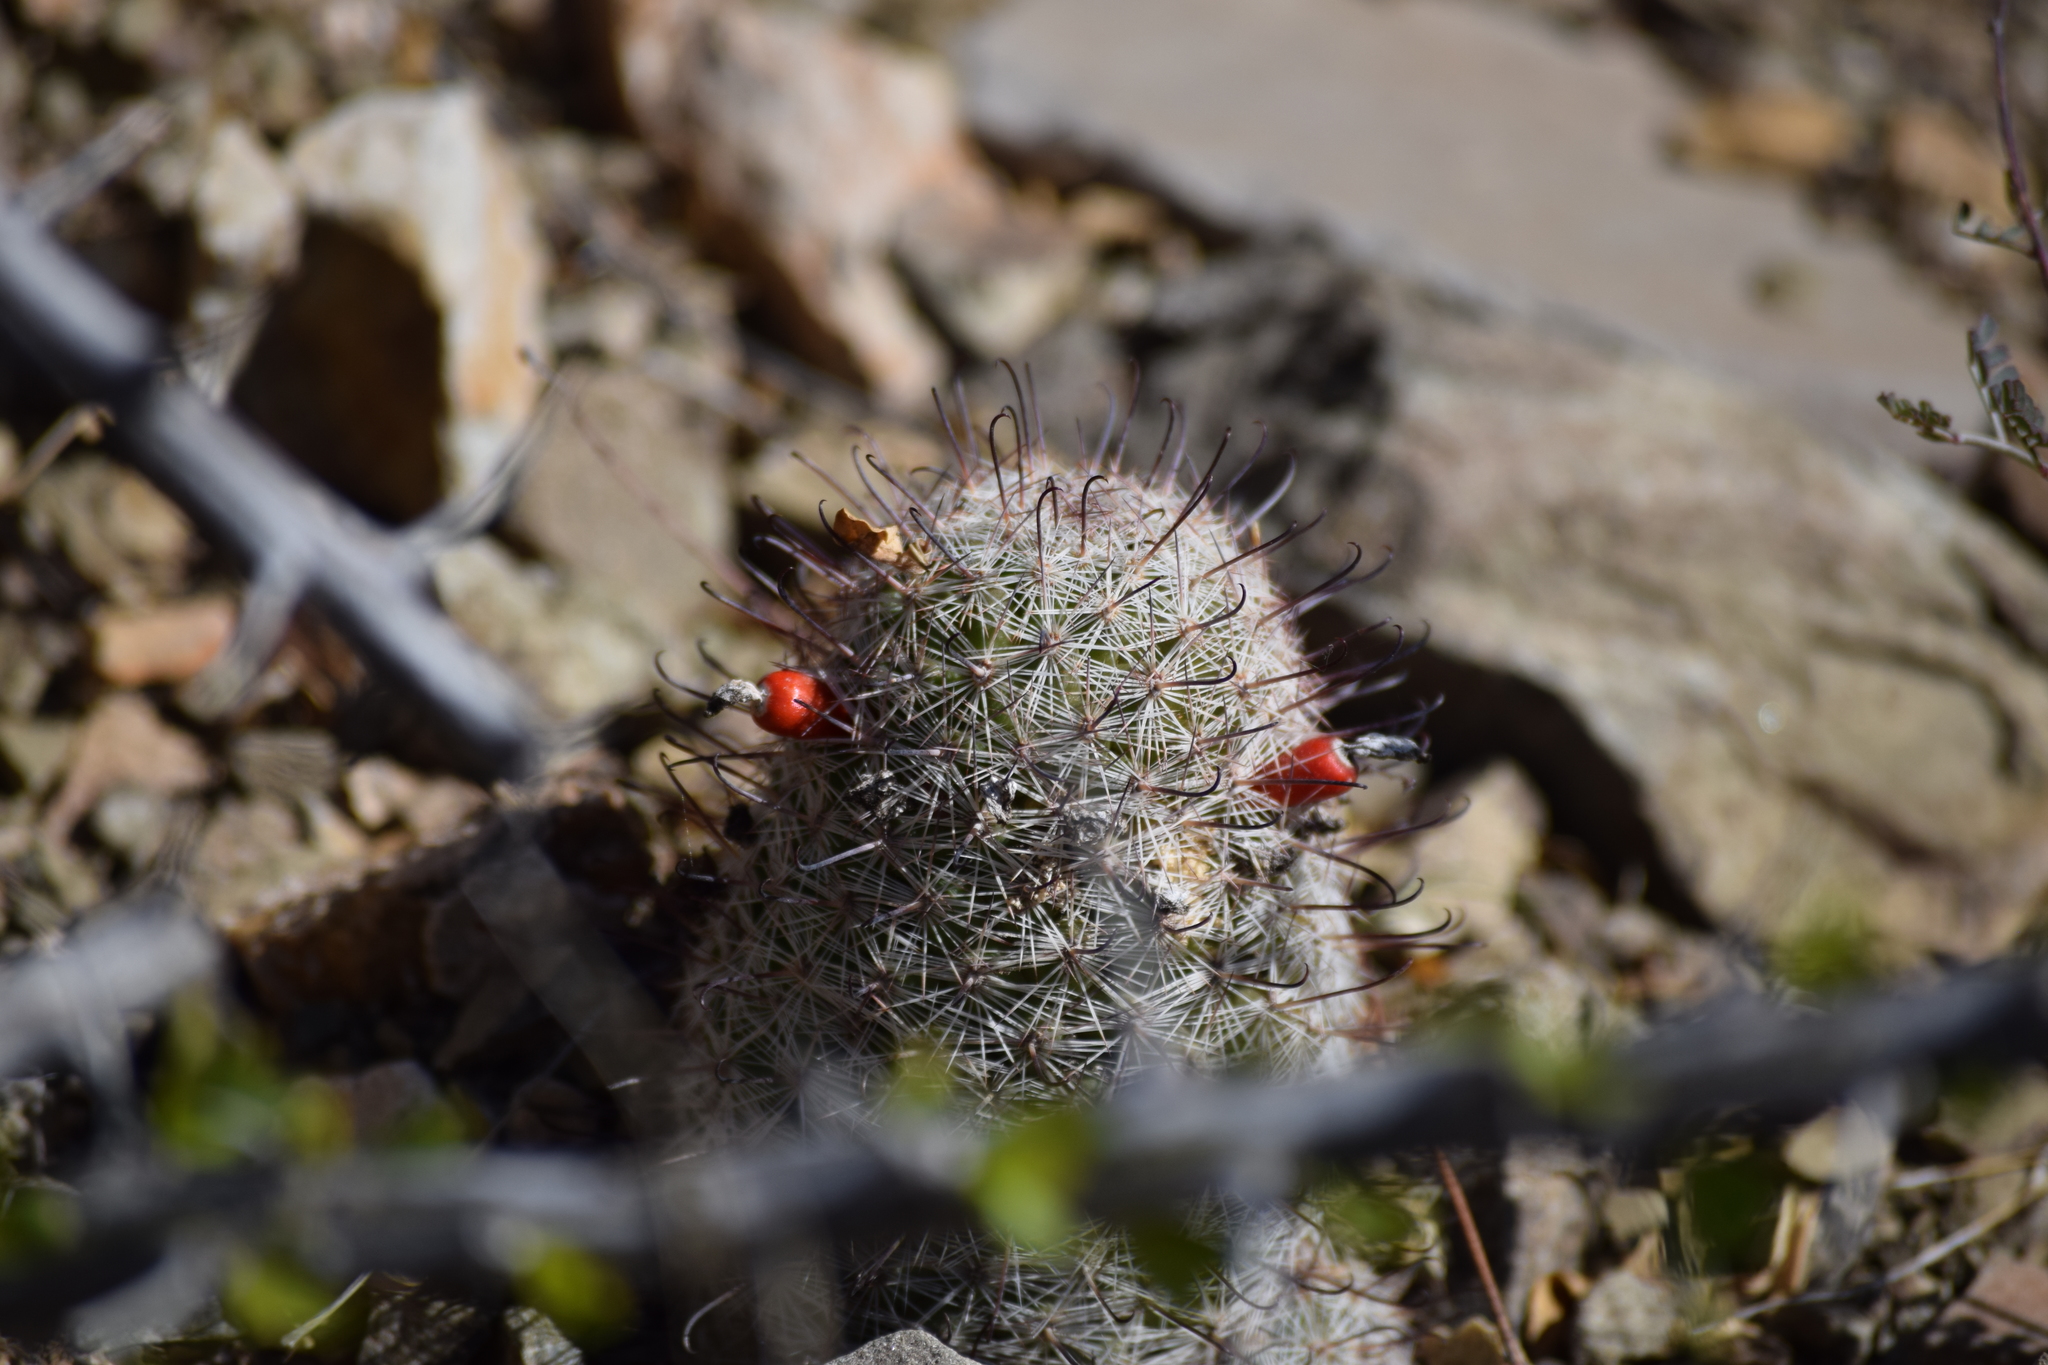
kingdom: Plantae
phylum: Tracheophyta
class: Magnoliopsida
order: Caryophyllales
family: Cactaceae
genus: Cochemiea
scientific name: Cochemiea grahamii
